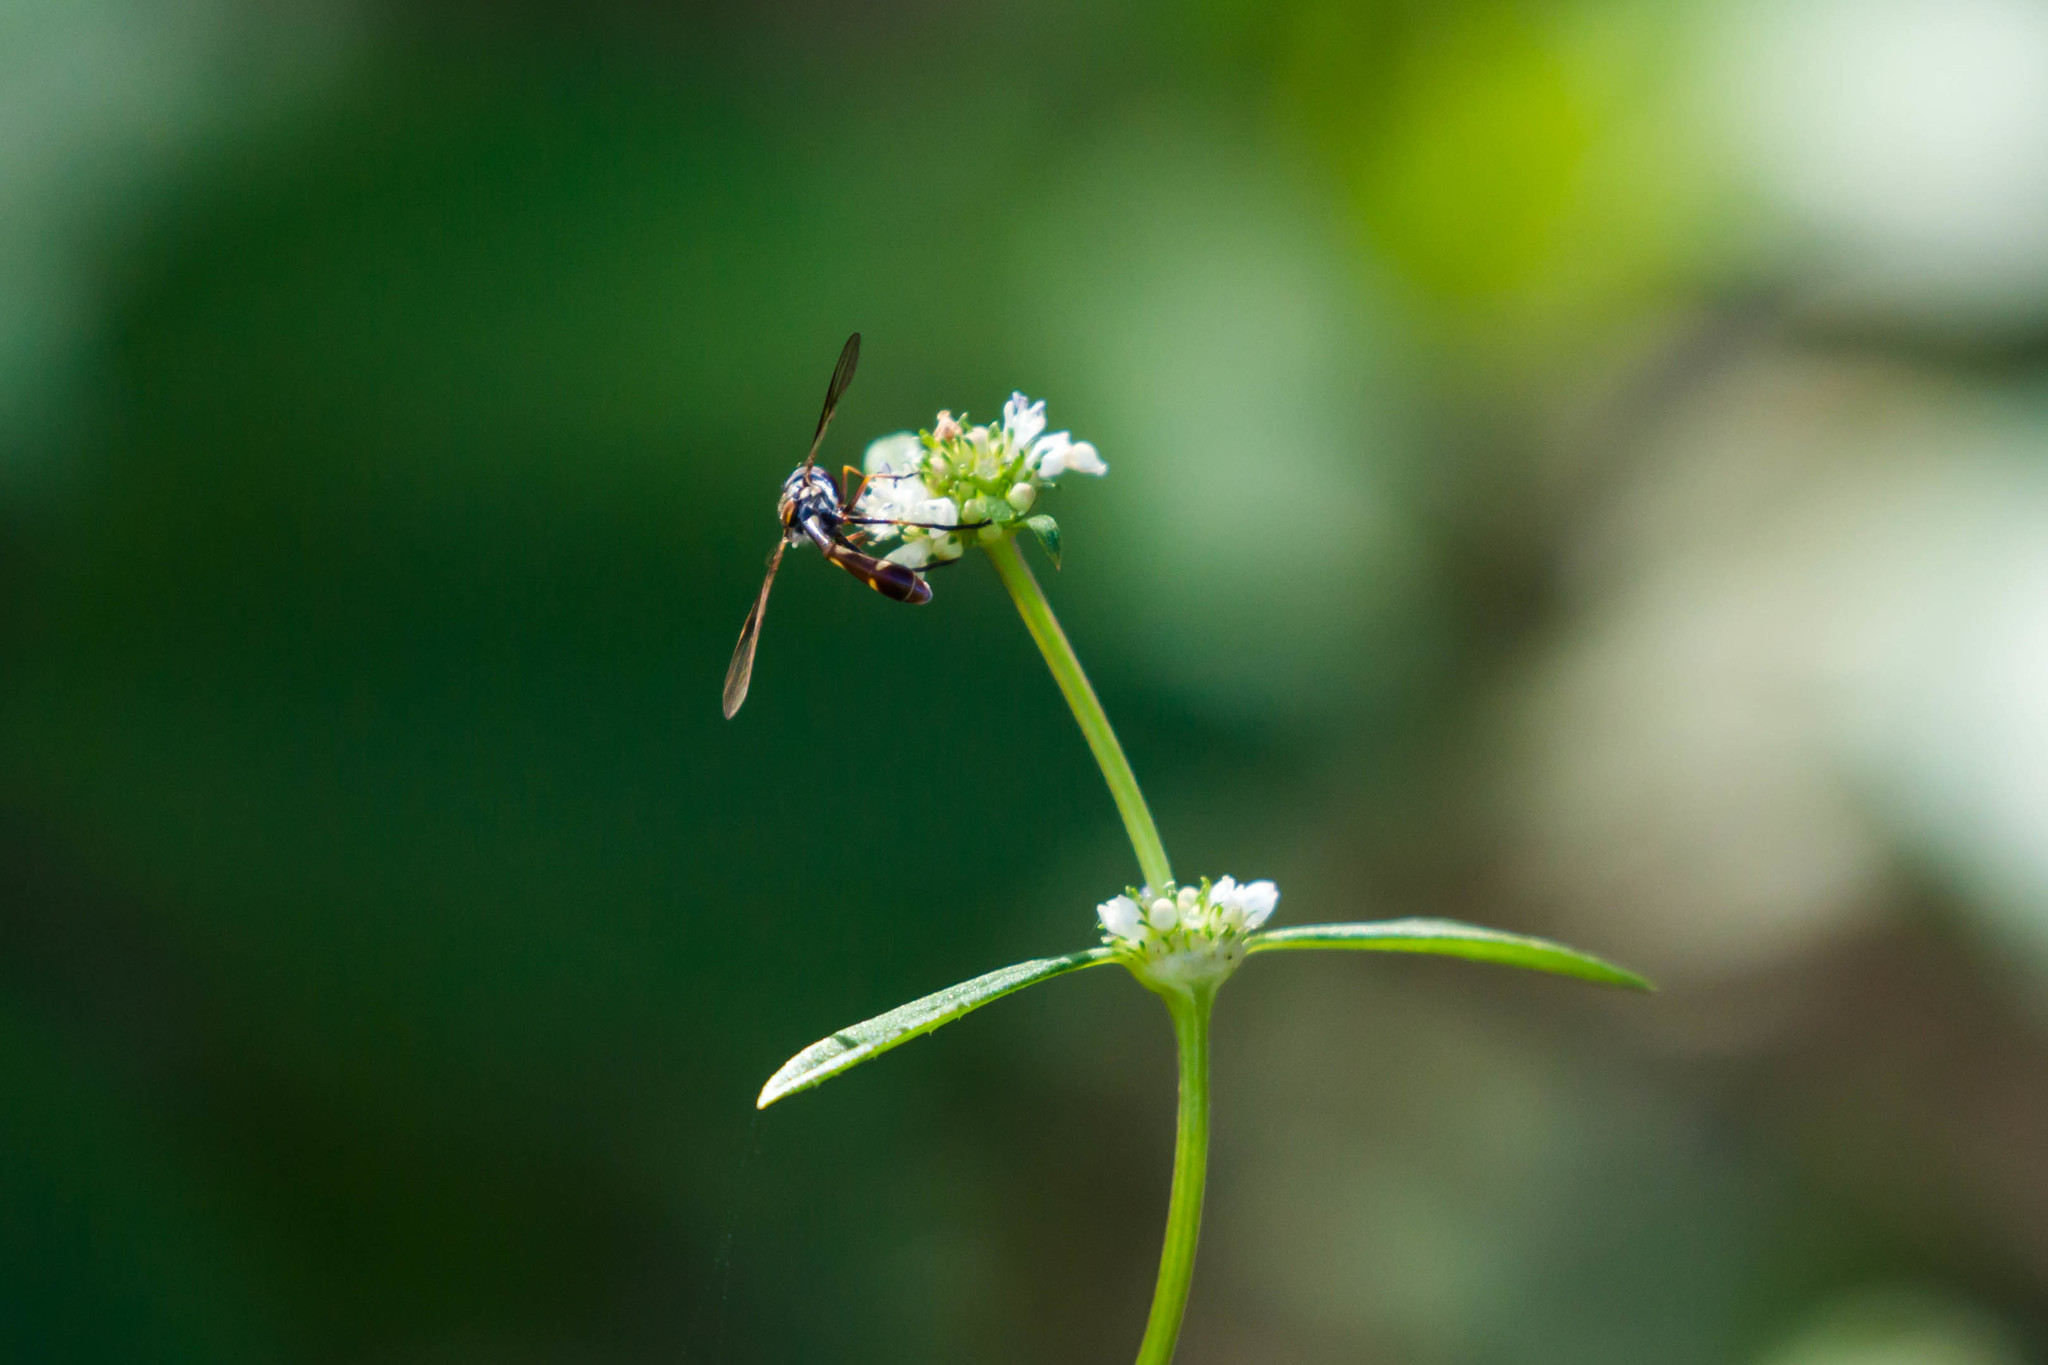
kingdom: Animalia
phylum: Arthropoda
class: Insecta
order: Diptera
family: Syrphidae
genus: Dioprosopa
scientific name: Dioprosopa clavatus
